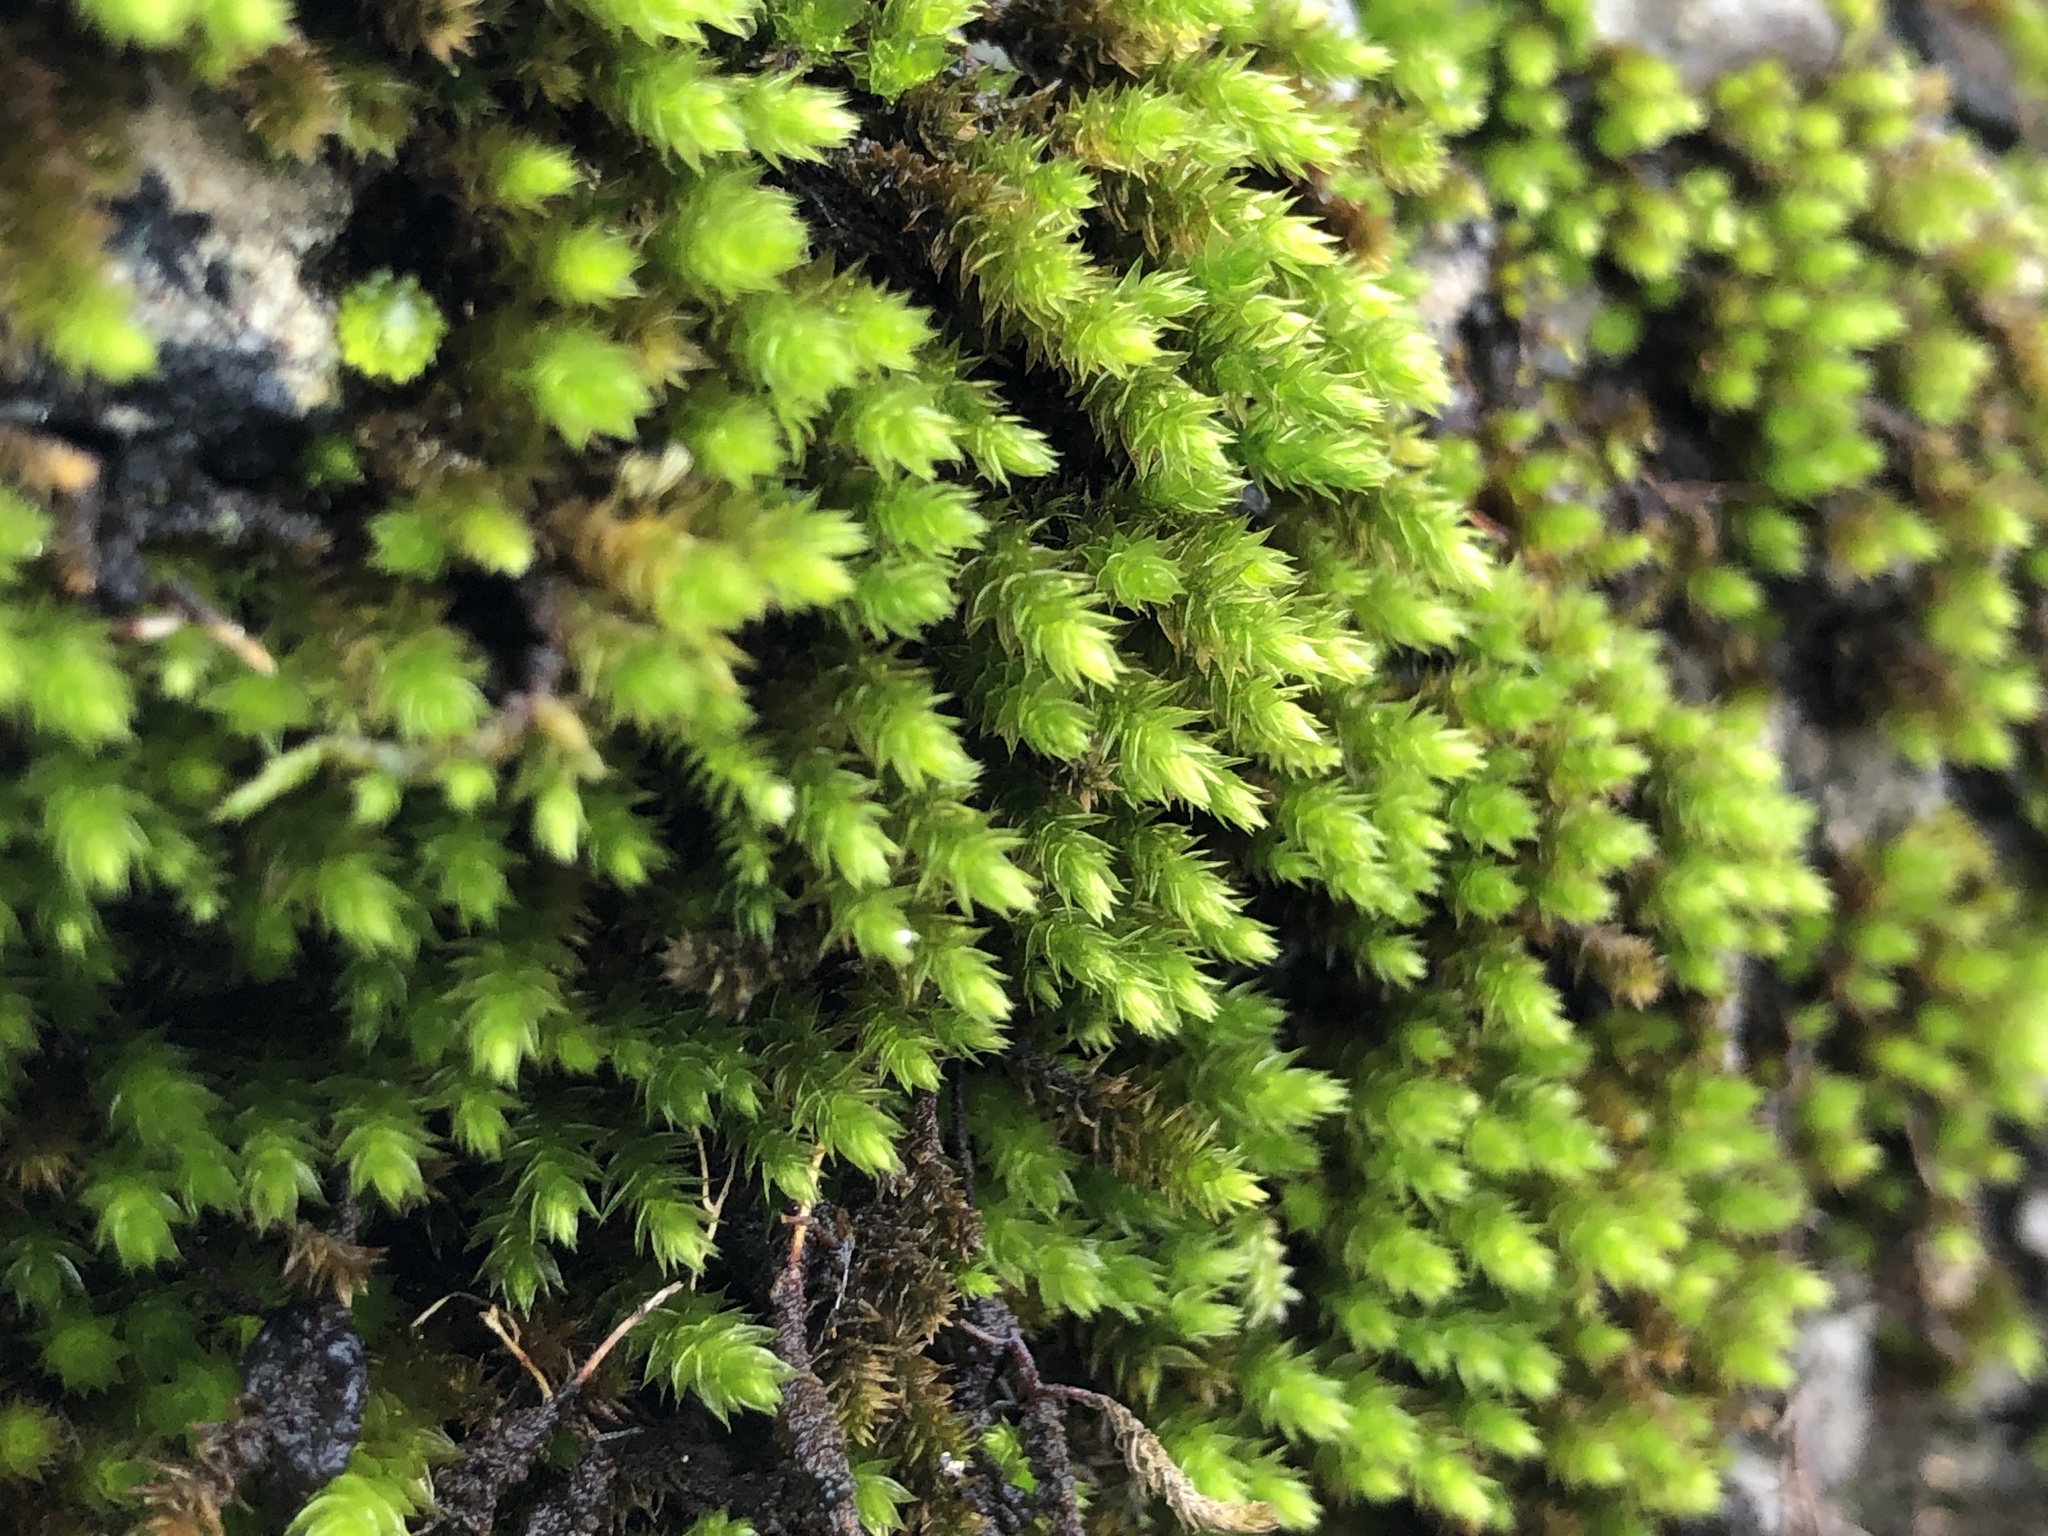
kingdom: Plantae
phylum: Bryophyta
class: Bryopsida
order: Hypnales
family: Leucodontaceae
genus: Leucodon
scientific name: Leucodon sciuroides
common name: Squirrel-tail moss
